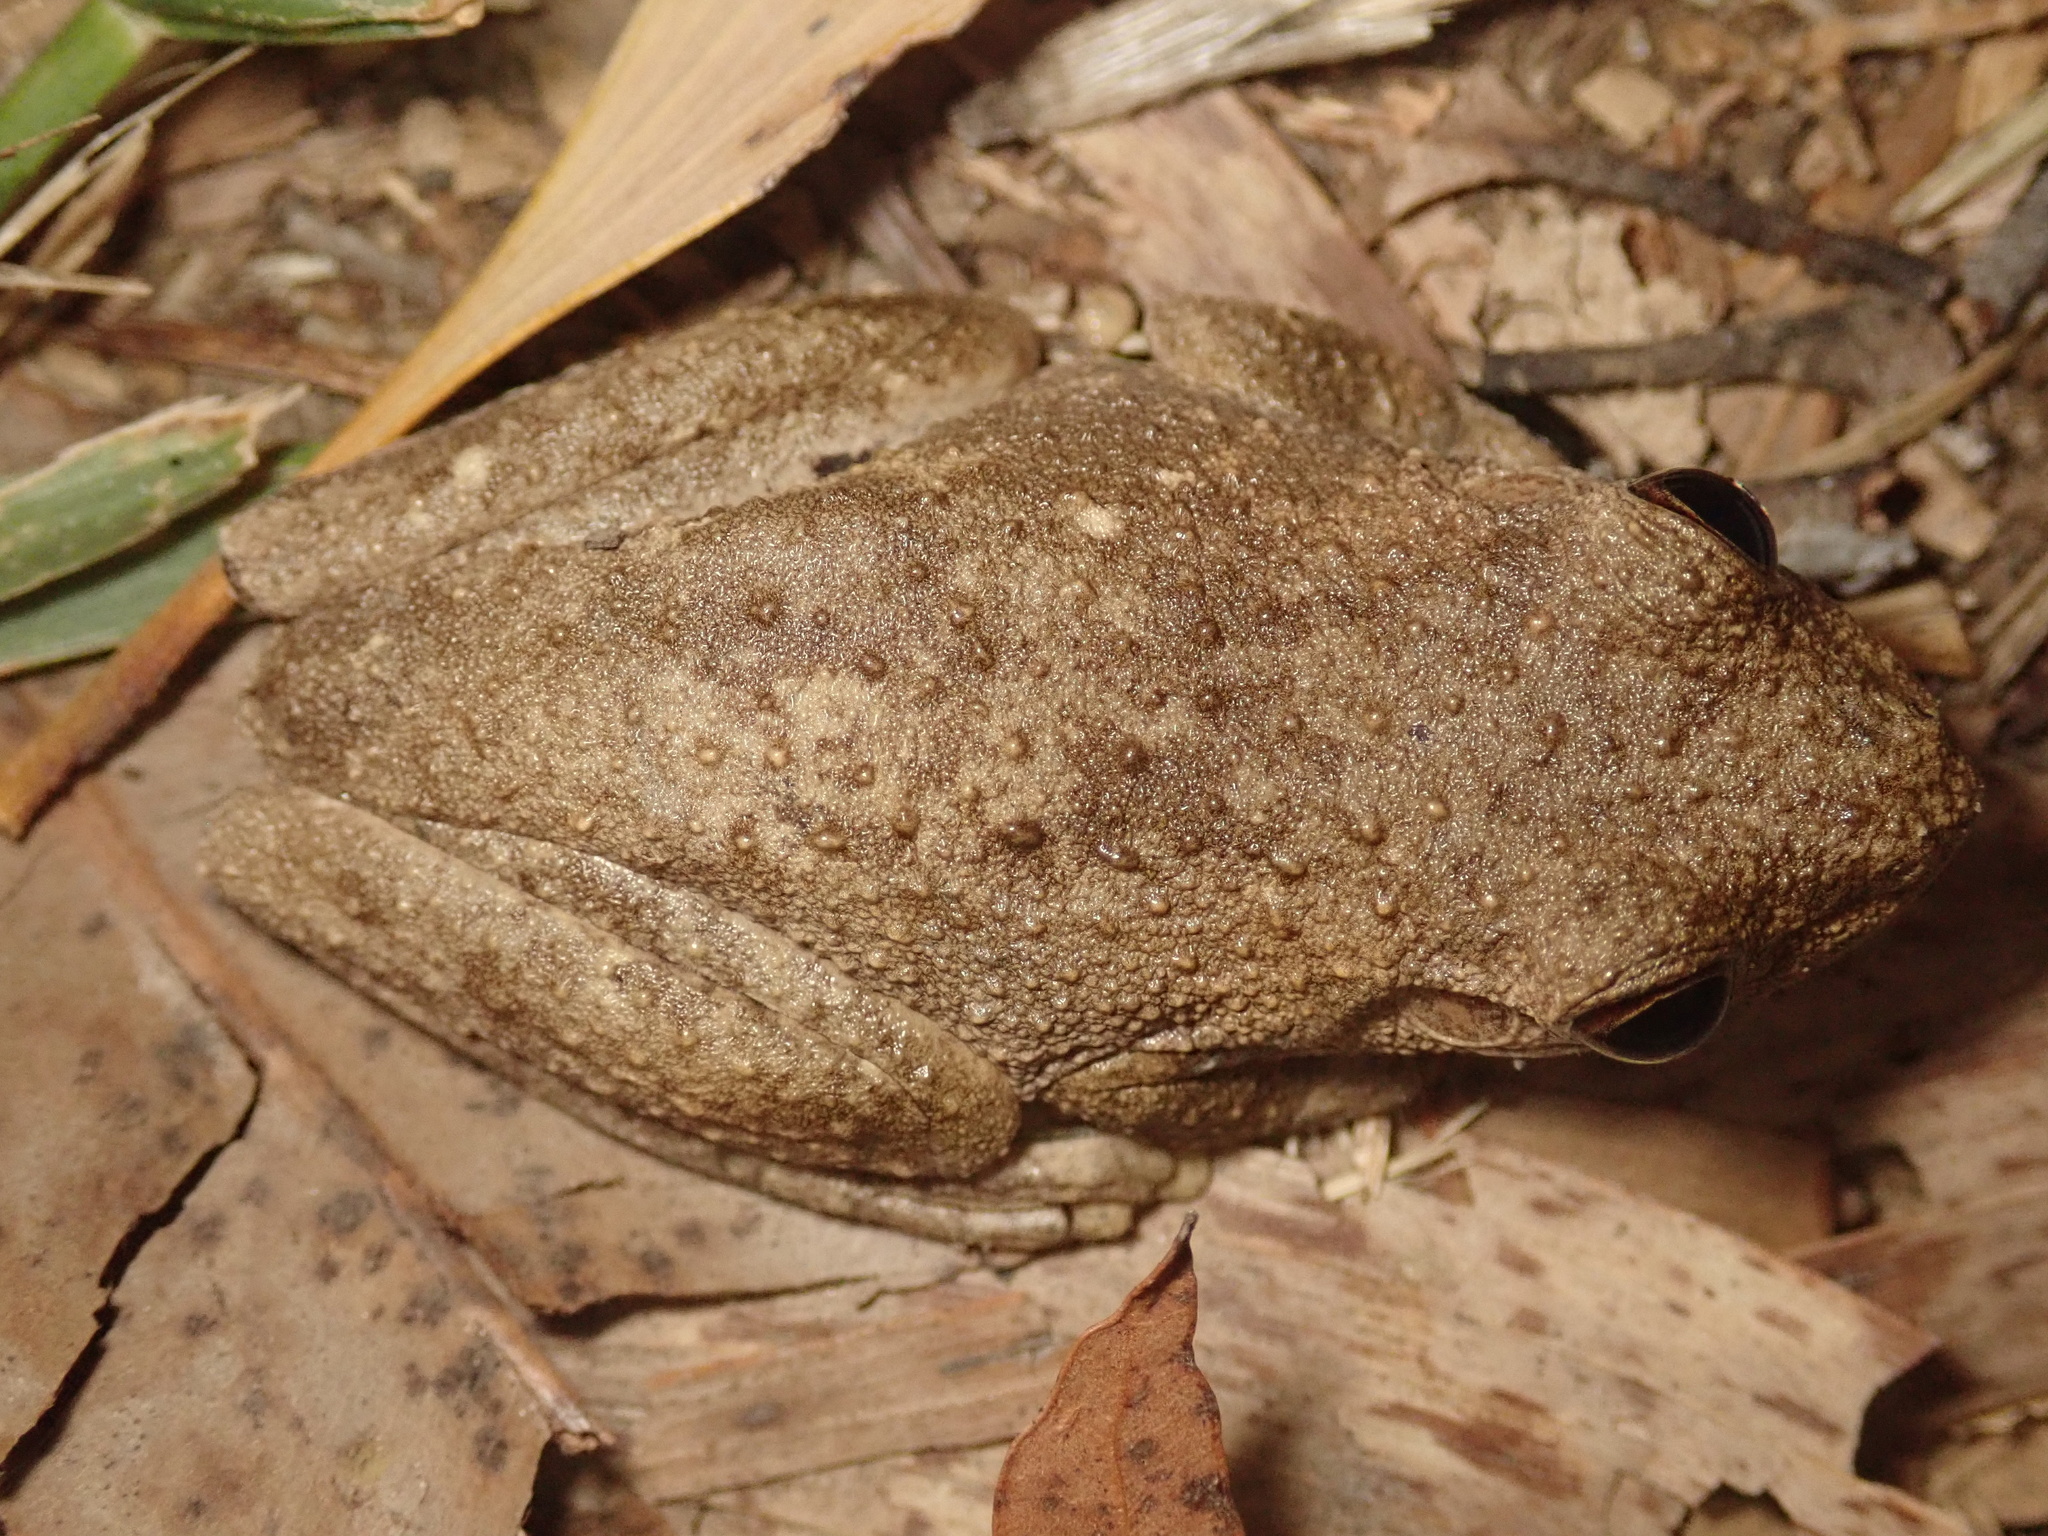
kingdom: Animalia
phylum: Chordata
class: Amphibia
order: Anura
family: Pelodryadidae
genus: Litoria
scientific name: Litoria rothii
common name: Roth’s tree frog
